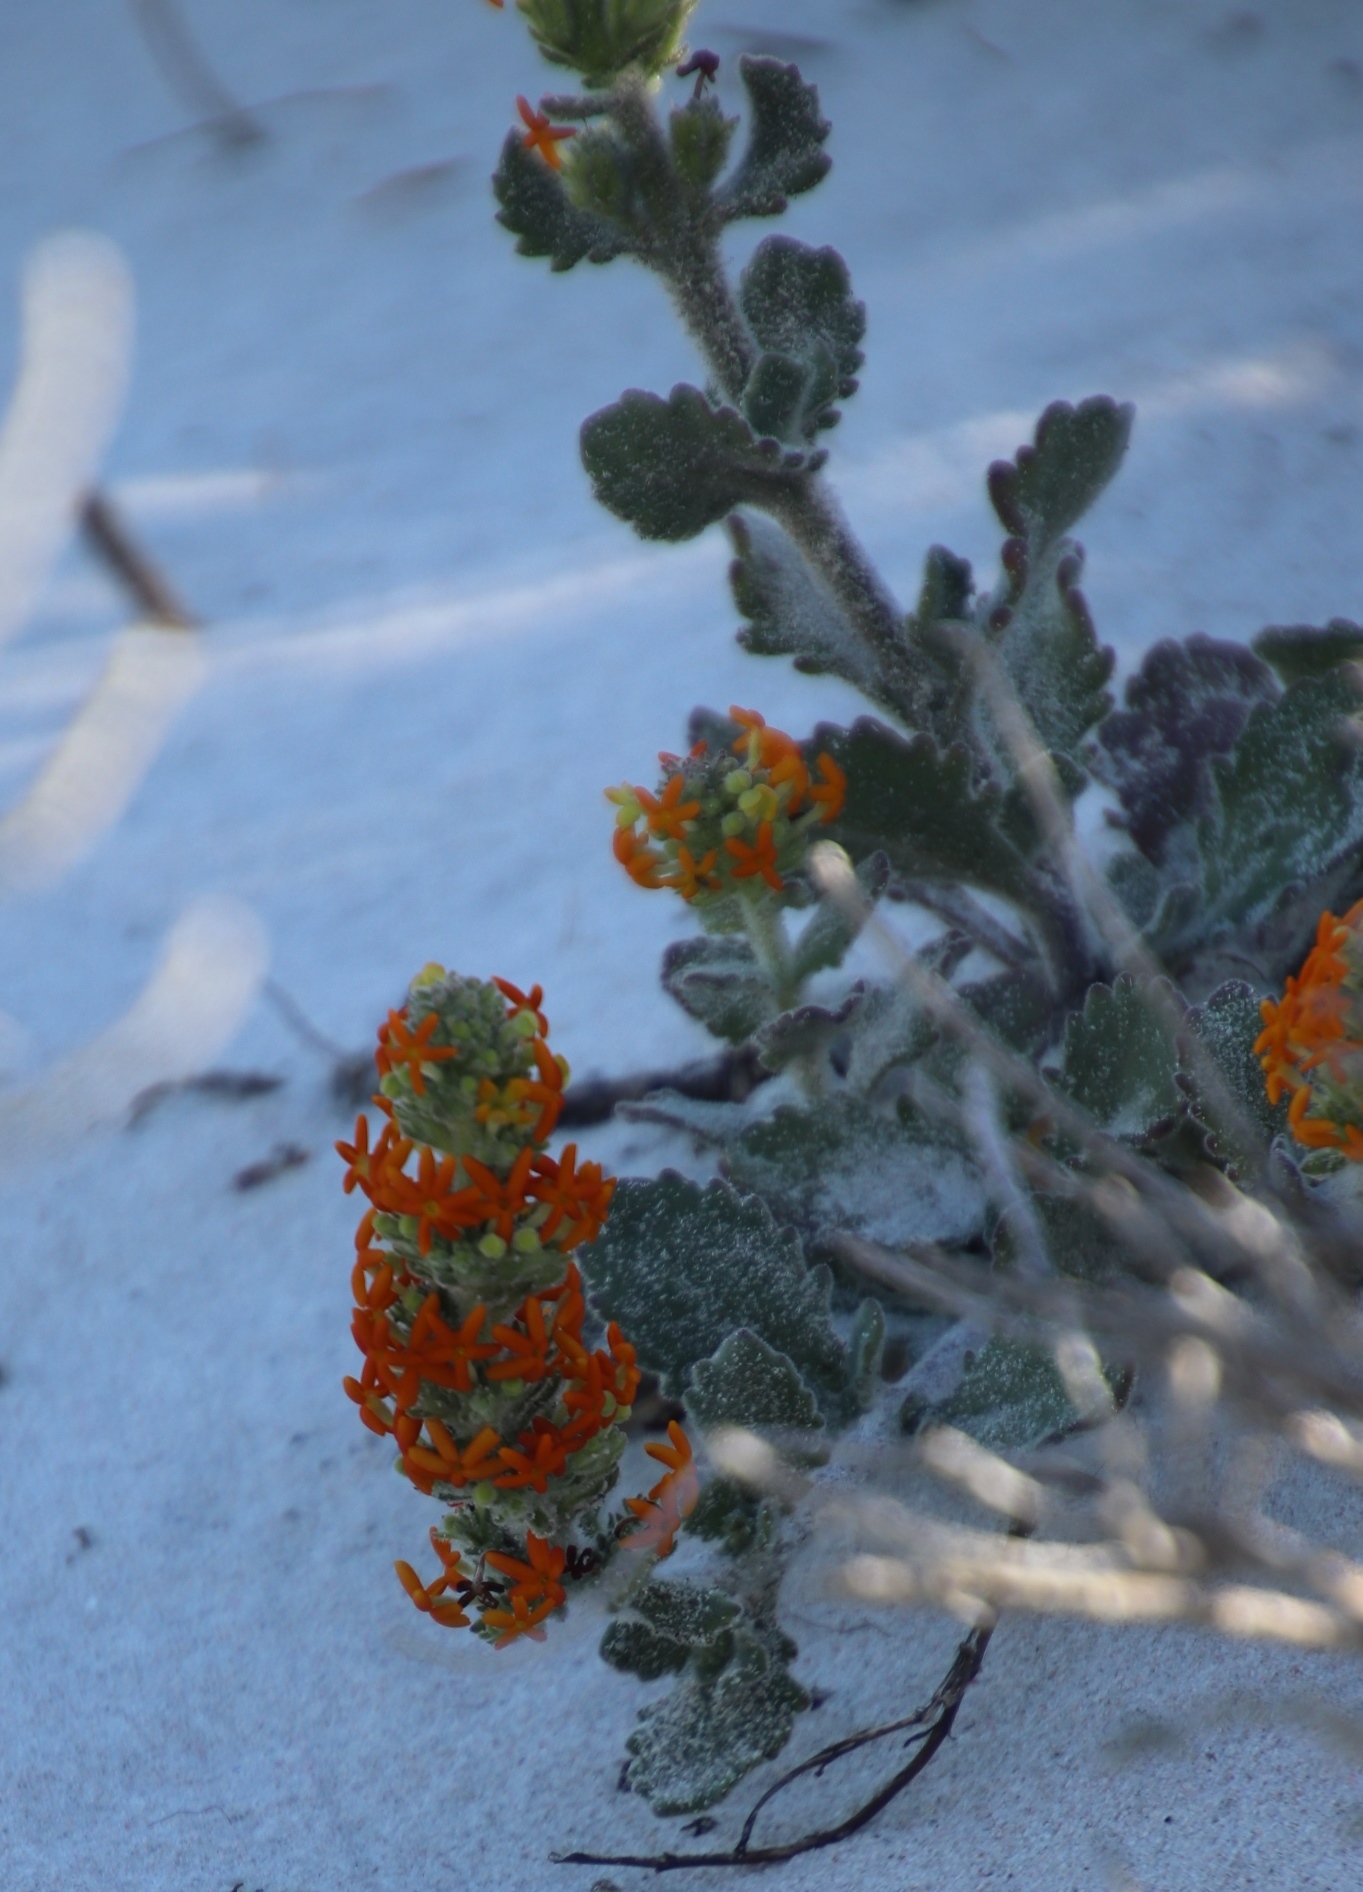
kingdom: Plantae
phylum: Tracheophyta
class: Magnoliopsida
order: Lamiales
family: Scrophulariaceae
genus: Manulea
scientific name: Manulea tomentosa
